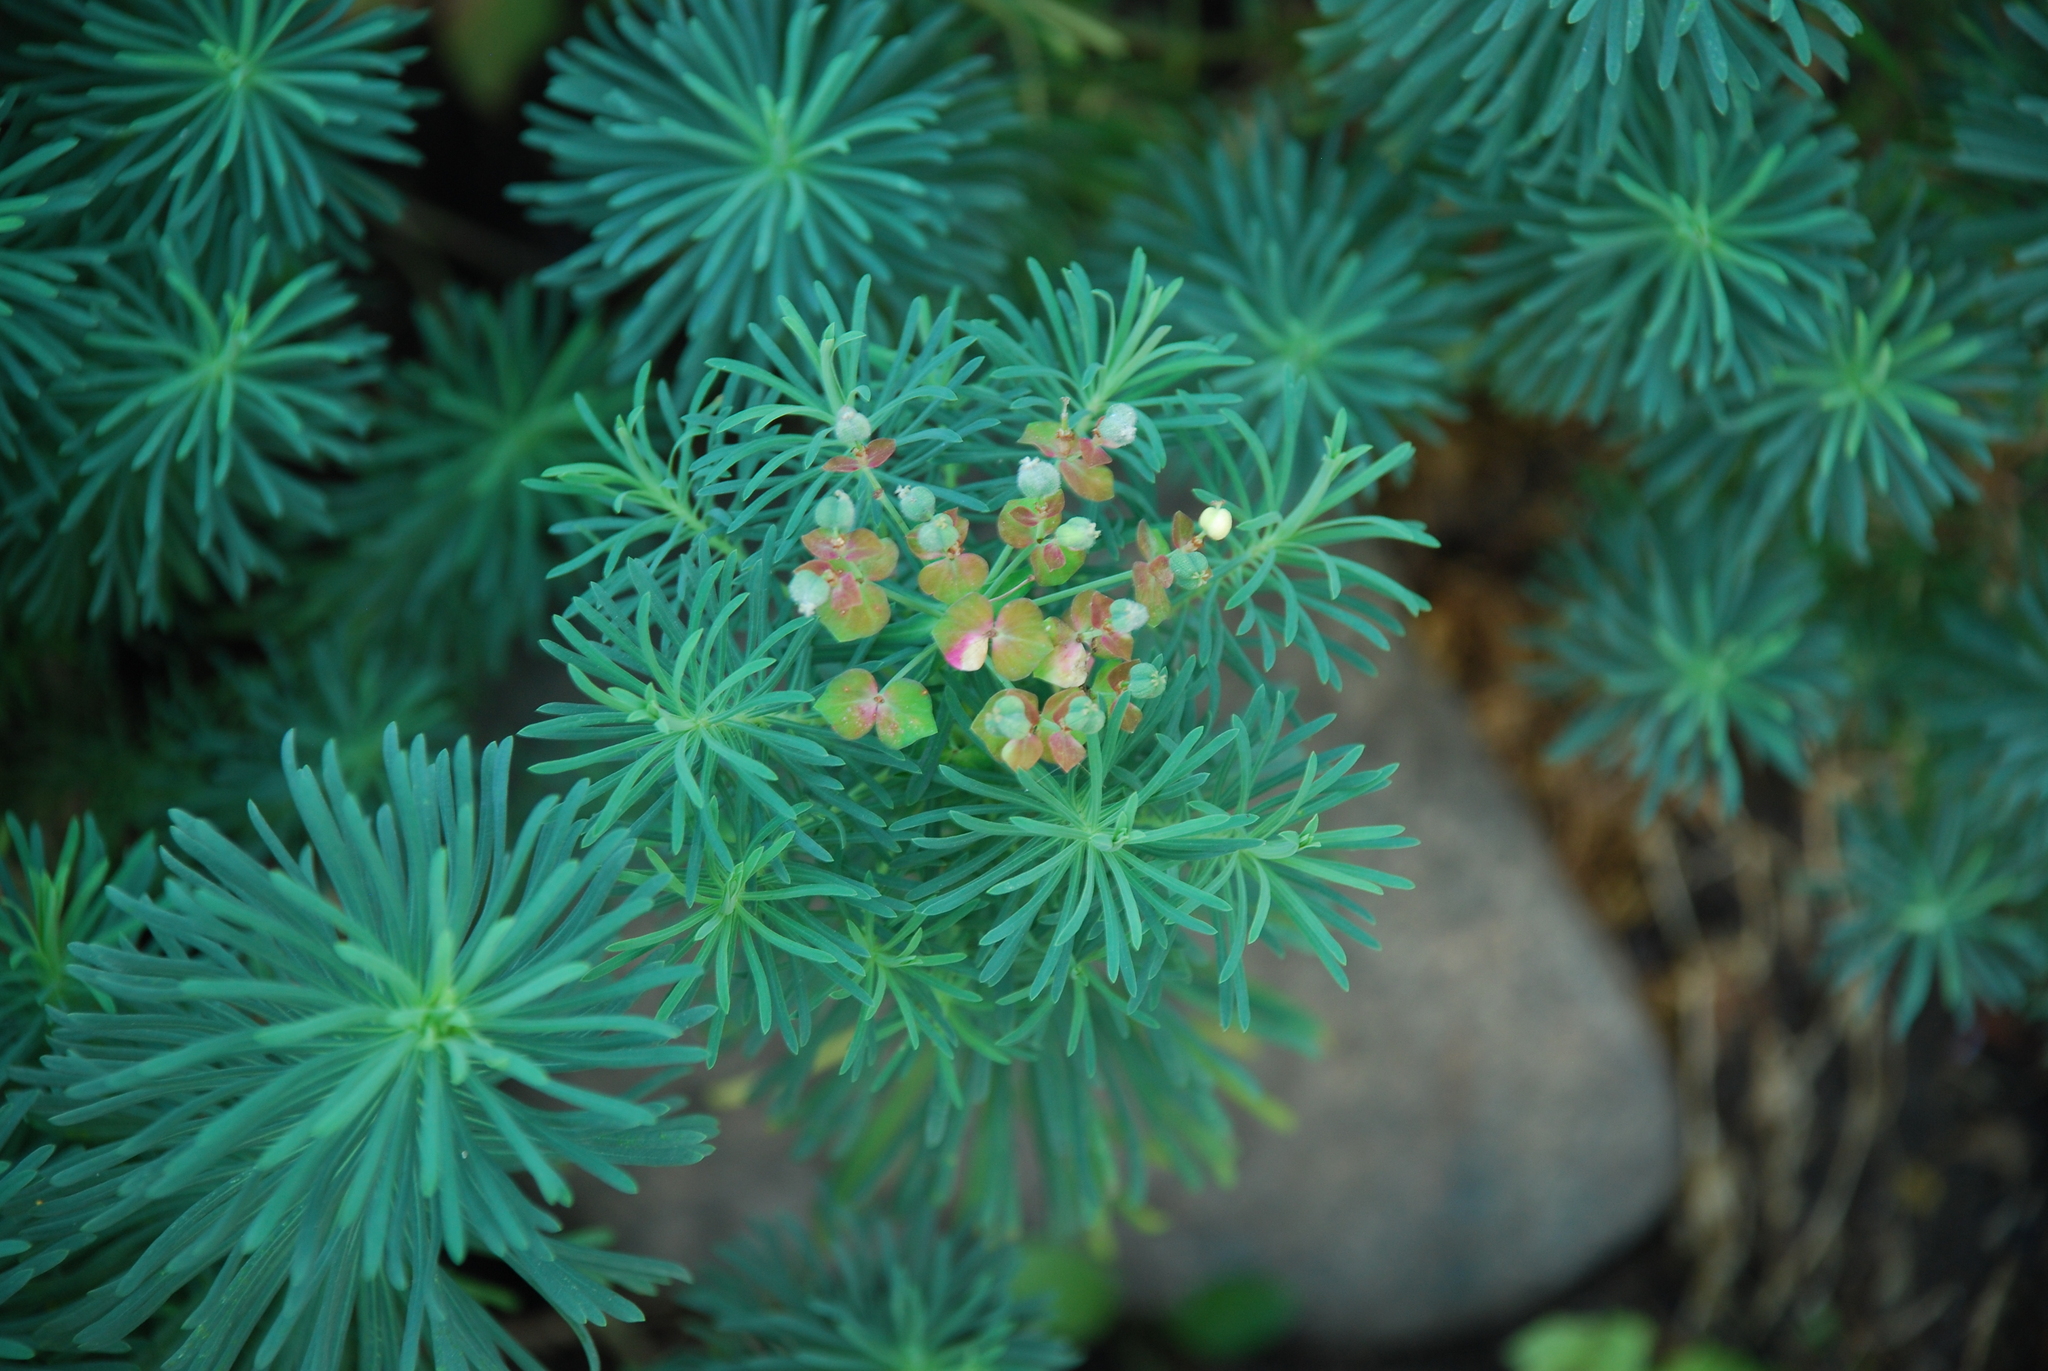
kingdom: Plantae
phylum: Tracheophyta
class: Magnoliopsida
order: Malpighiales
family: Euphorbiaceae
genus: Euphorbia
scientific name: Euphorbia cyparissias
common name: Cypress spurge
